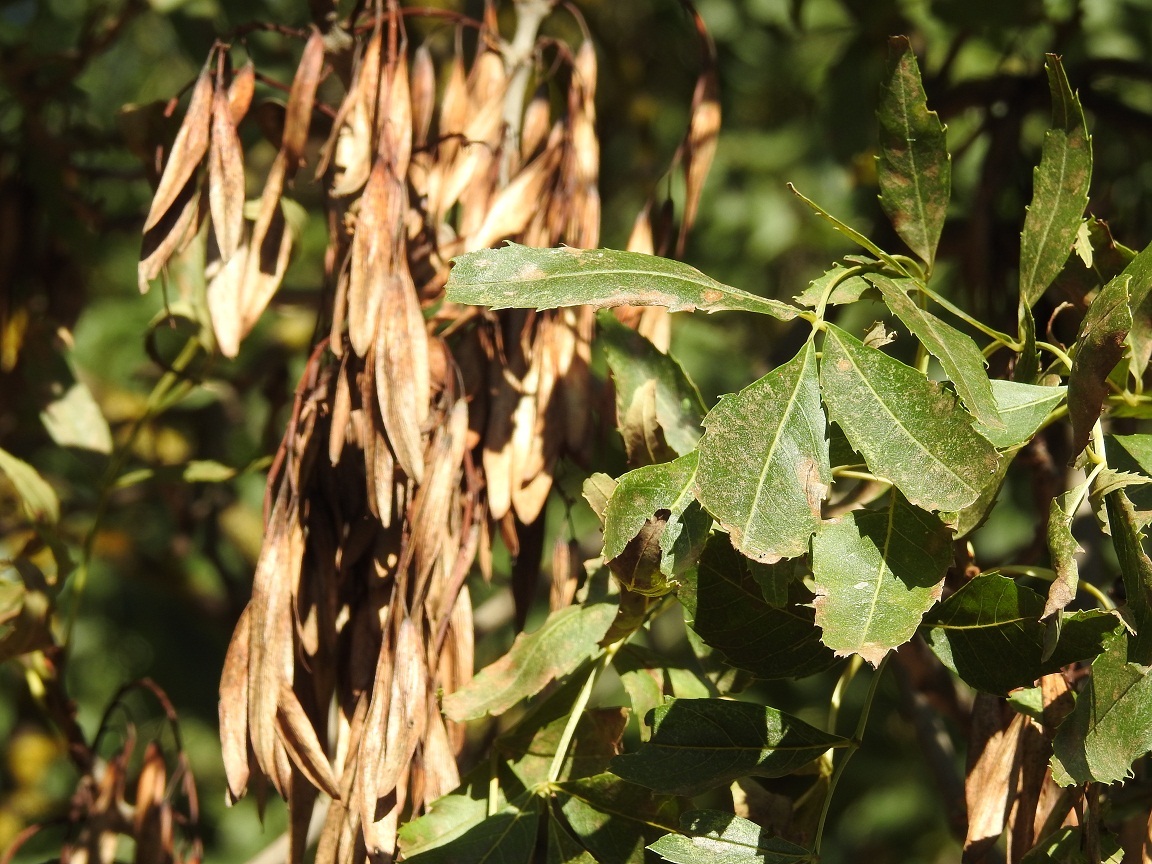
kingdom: Plantae
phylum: Tracheophyta
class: Magnoliopsida
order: Lamiales
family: Oleaceae
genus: Fraxinus
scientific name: Fraxinus angustifolia
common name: Narrow-leafed ash
